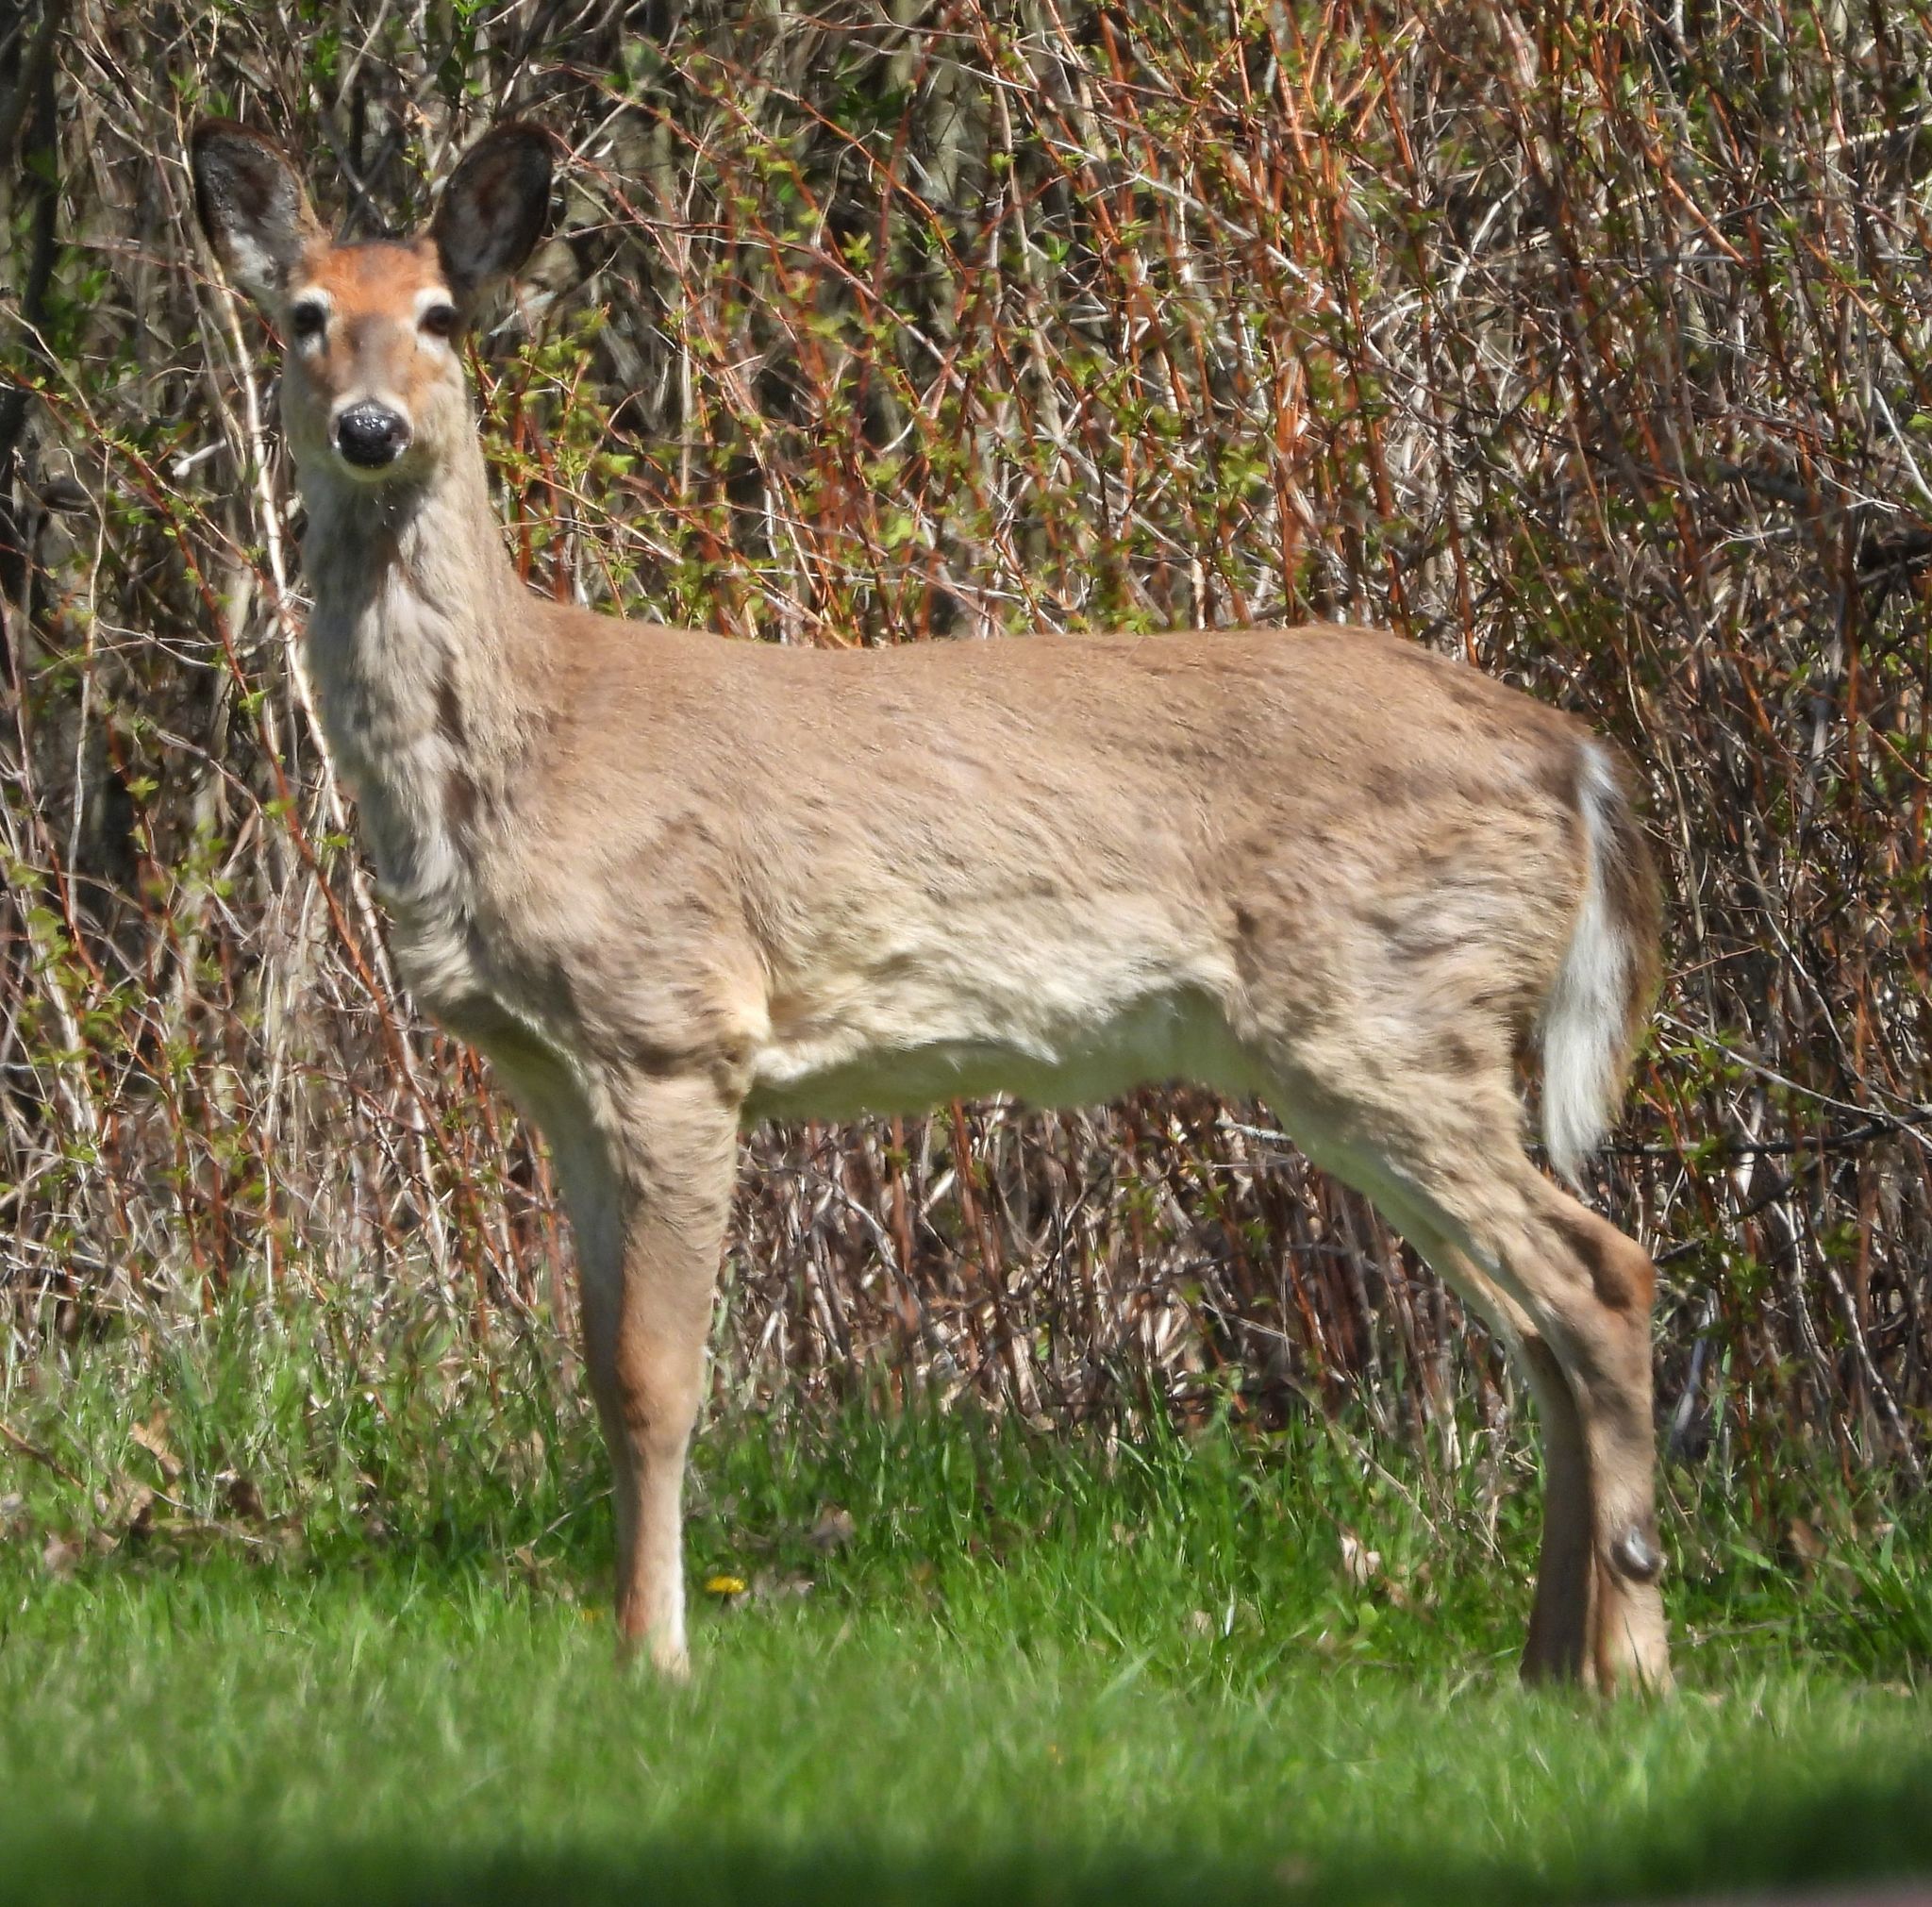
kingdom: Animalia
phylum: Chordata
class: Mammalia
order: Artiodactyla
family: Cervidae
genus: Odocoileus
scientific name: Odocoileus virginianus
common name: White-tailed deer
